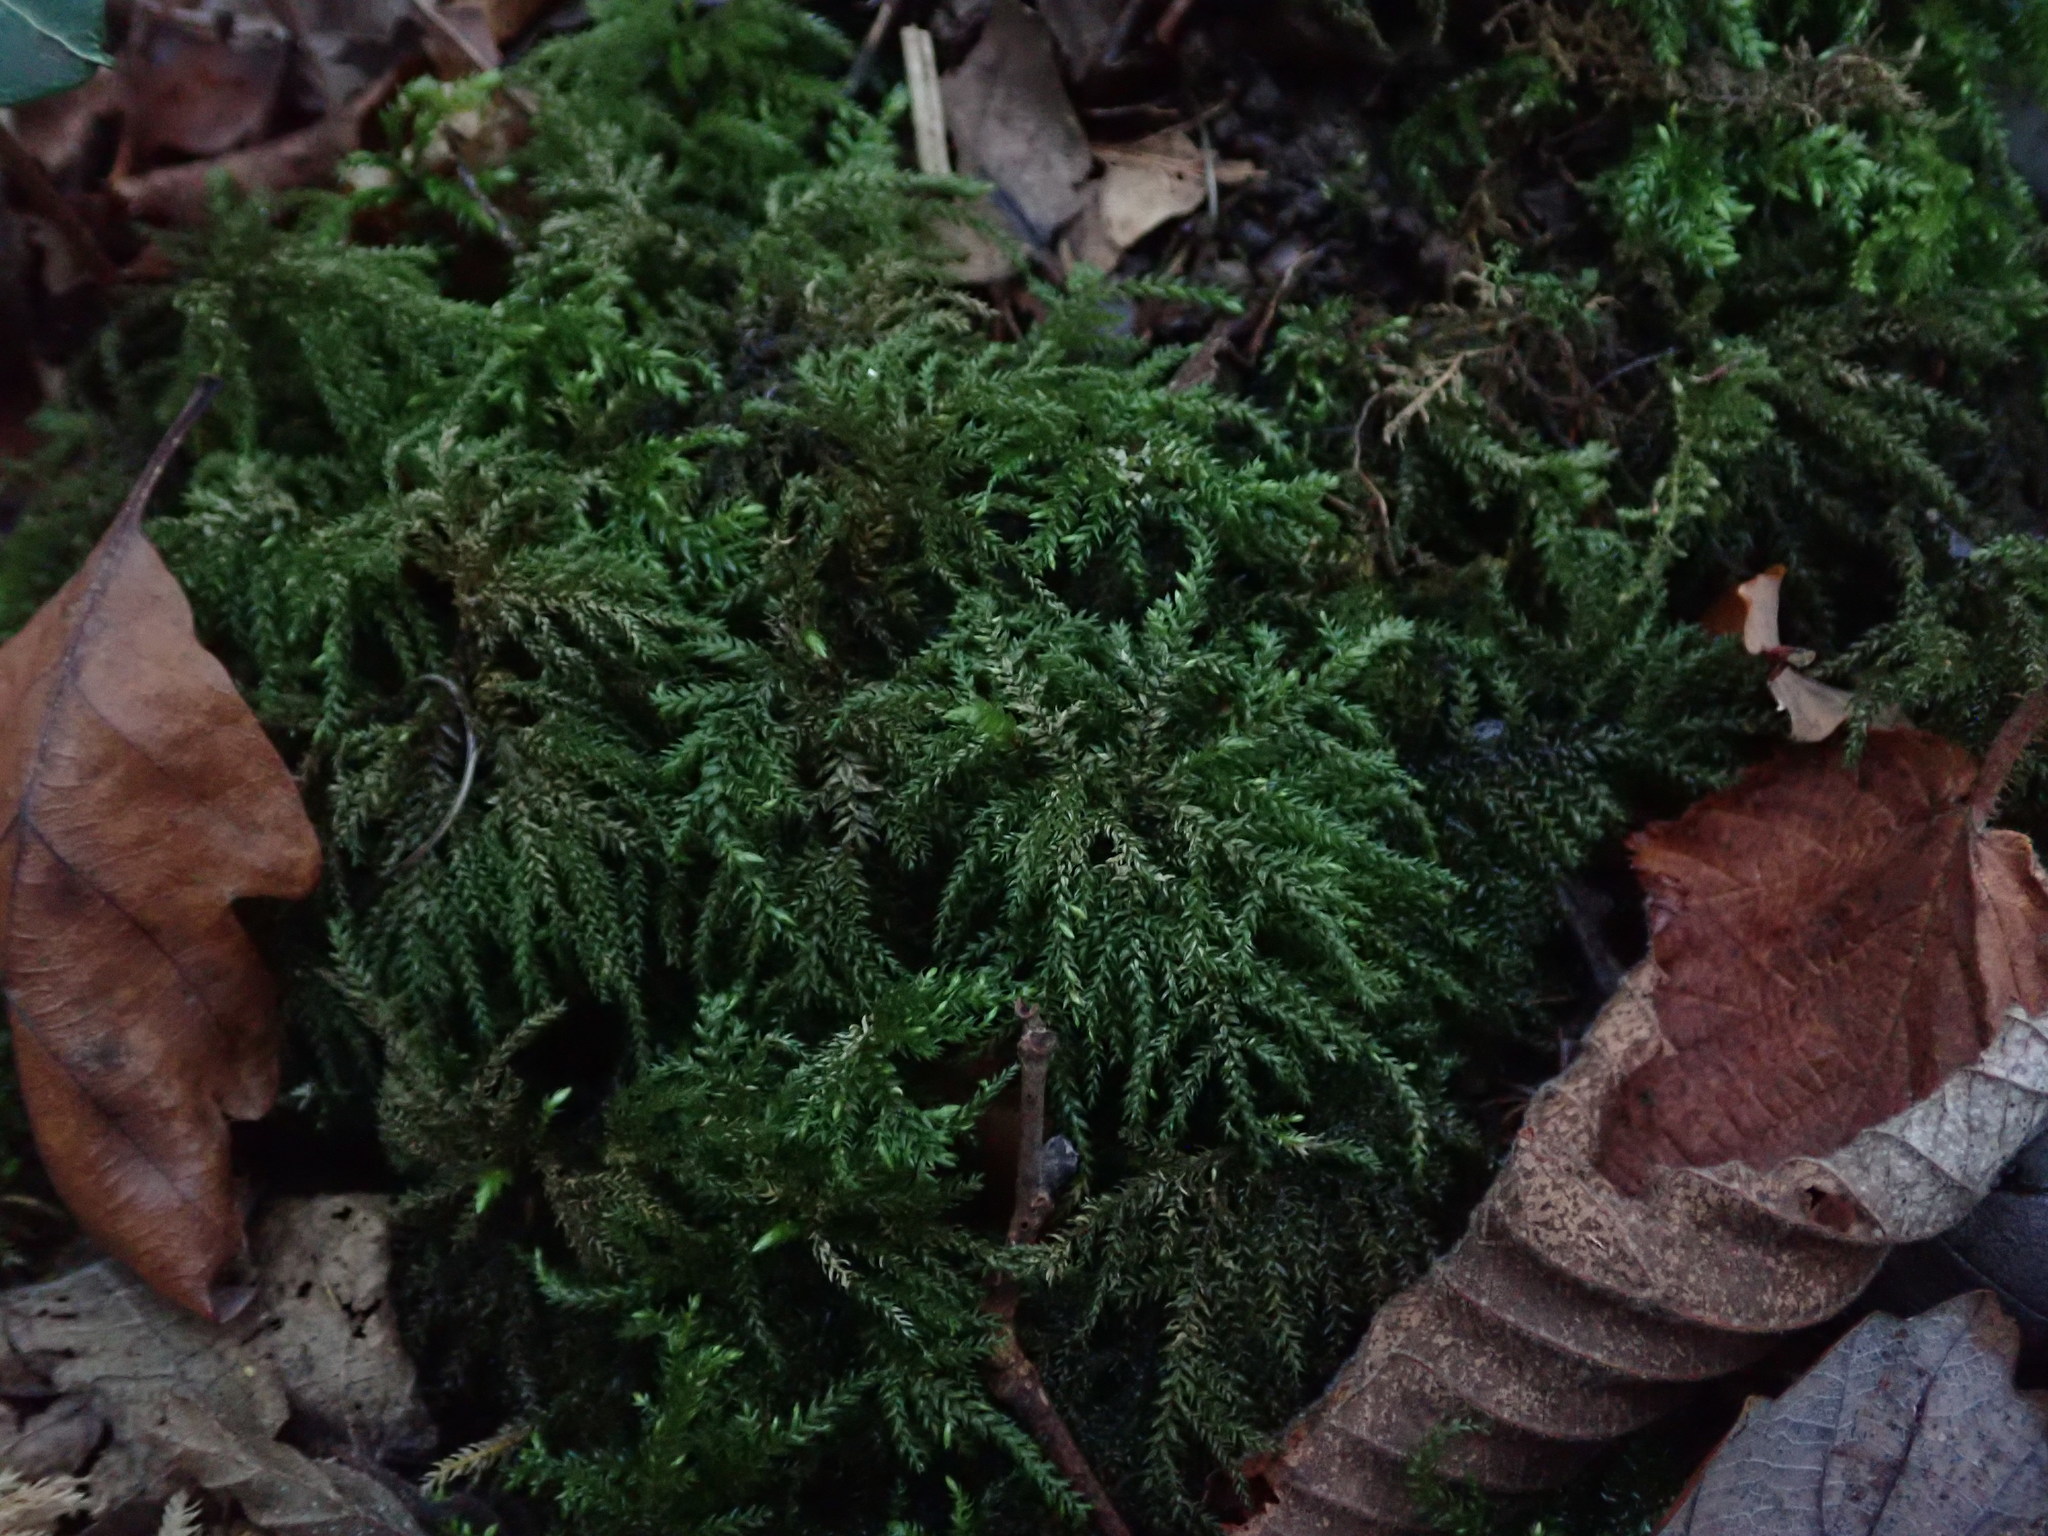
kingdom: Plantae
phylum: Bryophyta
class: Bryopsida
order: Hypnales
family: Neckeraceae
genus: Thamnobryum
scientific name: Thamnobryum alopecurum
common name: Fox-tail feather-moss
